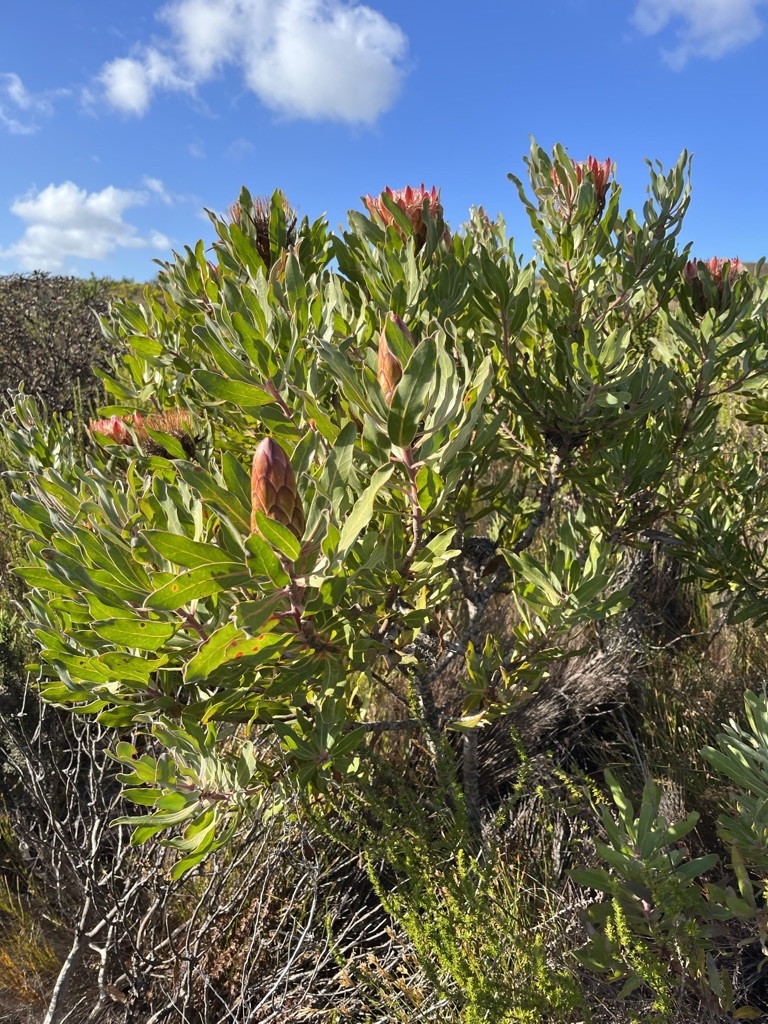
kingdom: Plantae
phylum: Tracheophyta
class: Magnoliopsida
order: Proteales
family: Proteaceae
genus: Protea
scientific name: Protea susannae
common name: Foetid-leaf sugarbush
